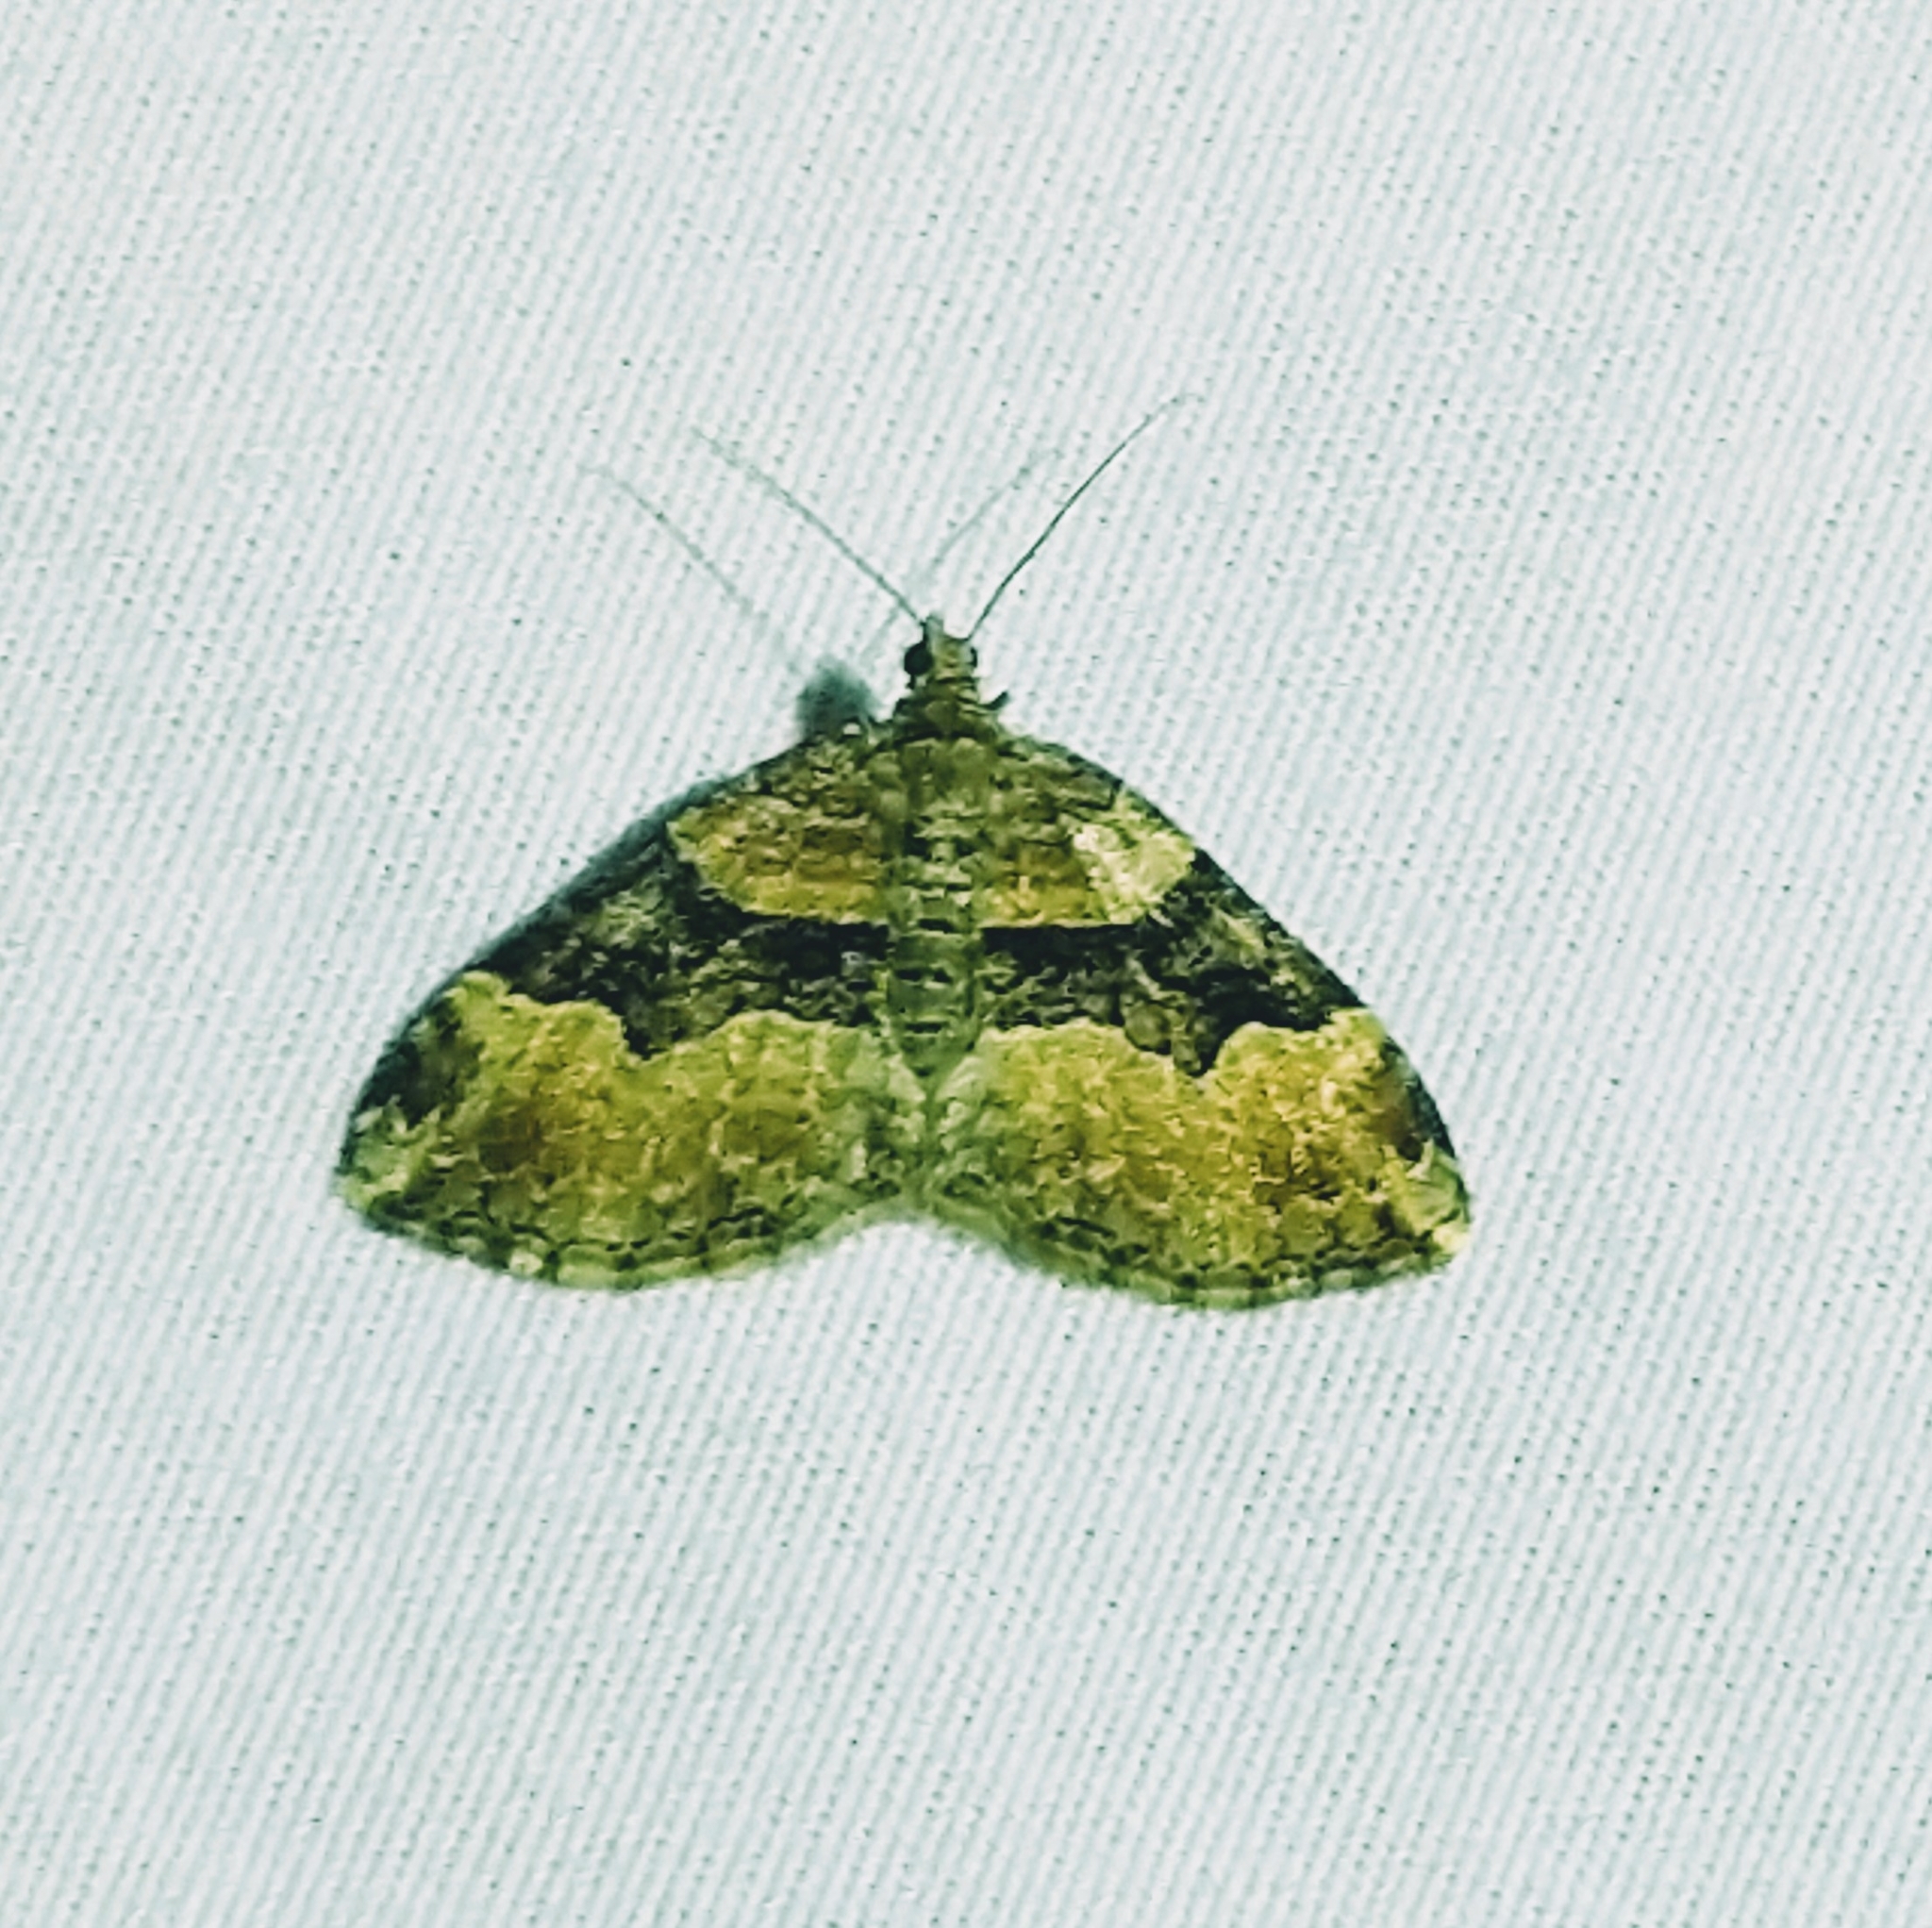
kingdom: Animalia
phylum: Arthropoda
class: Insecta
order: Lepidoptera
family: Geometridae
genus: Xanthorhoe
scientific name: Xanthorhoe lacustrata
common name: Toothed brown carpet
